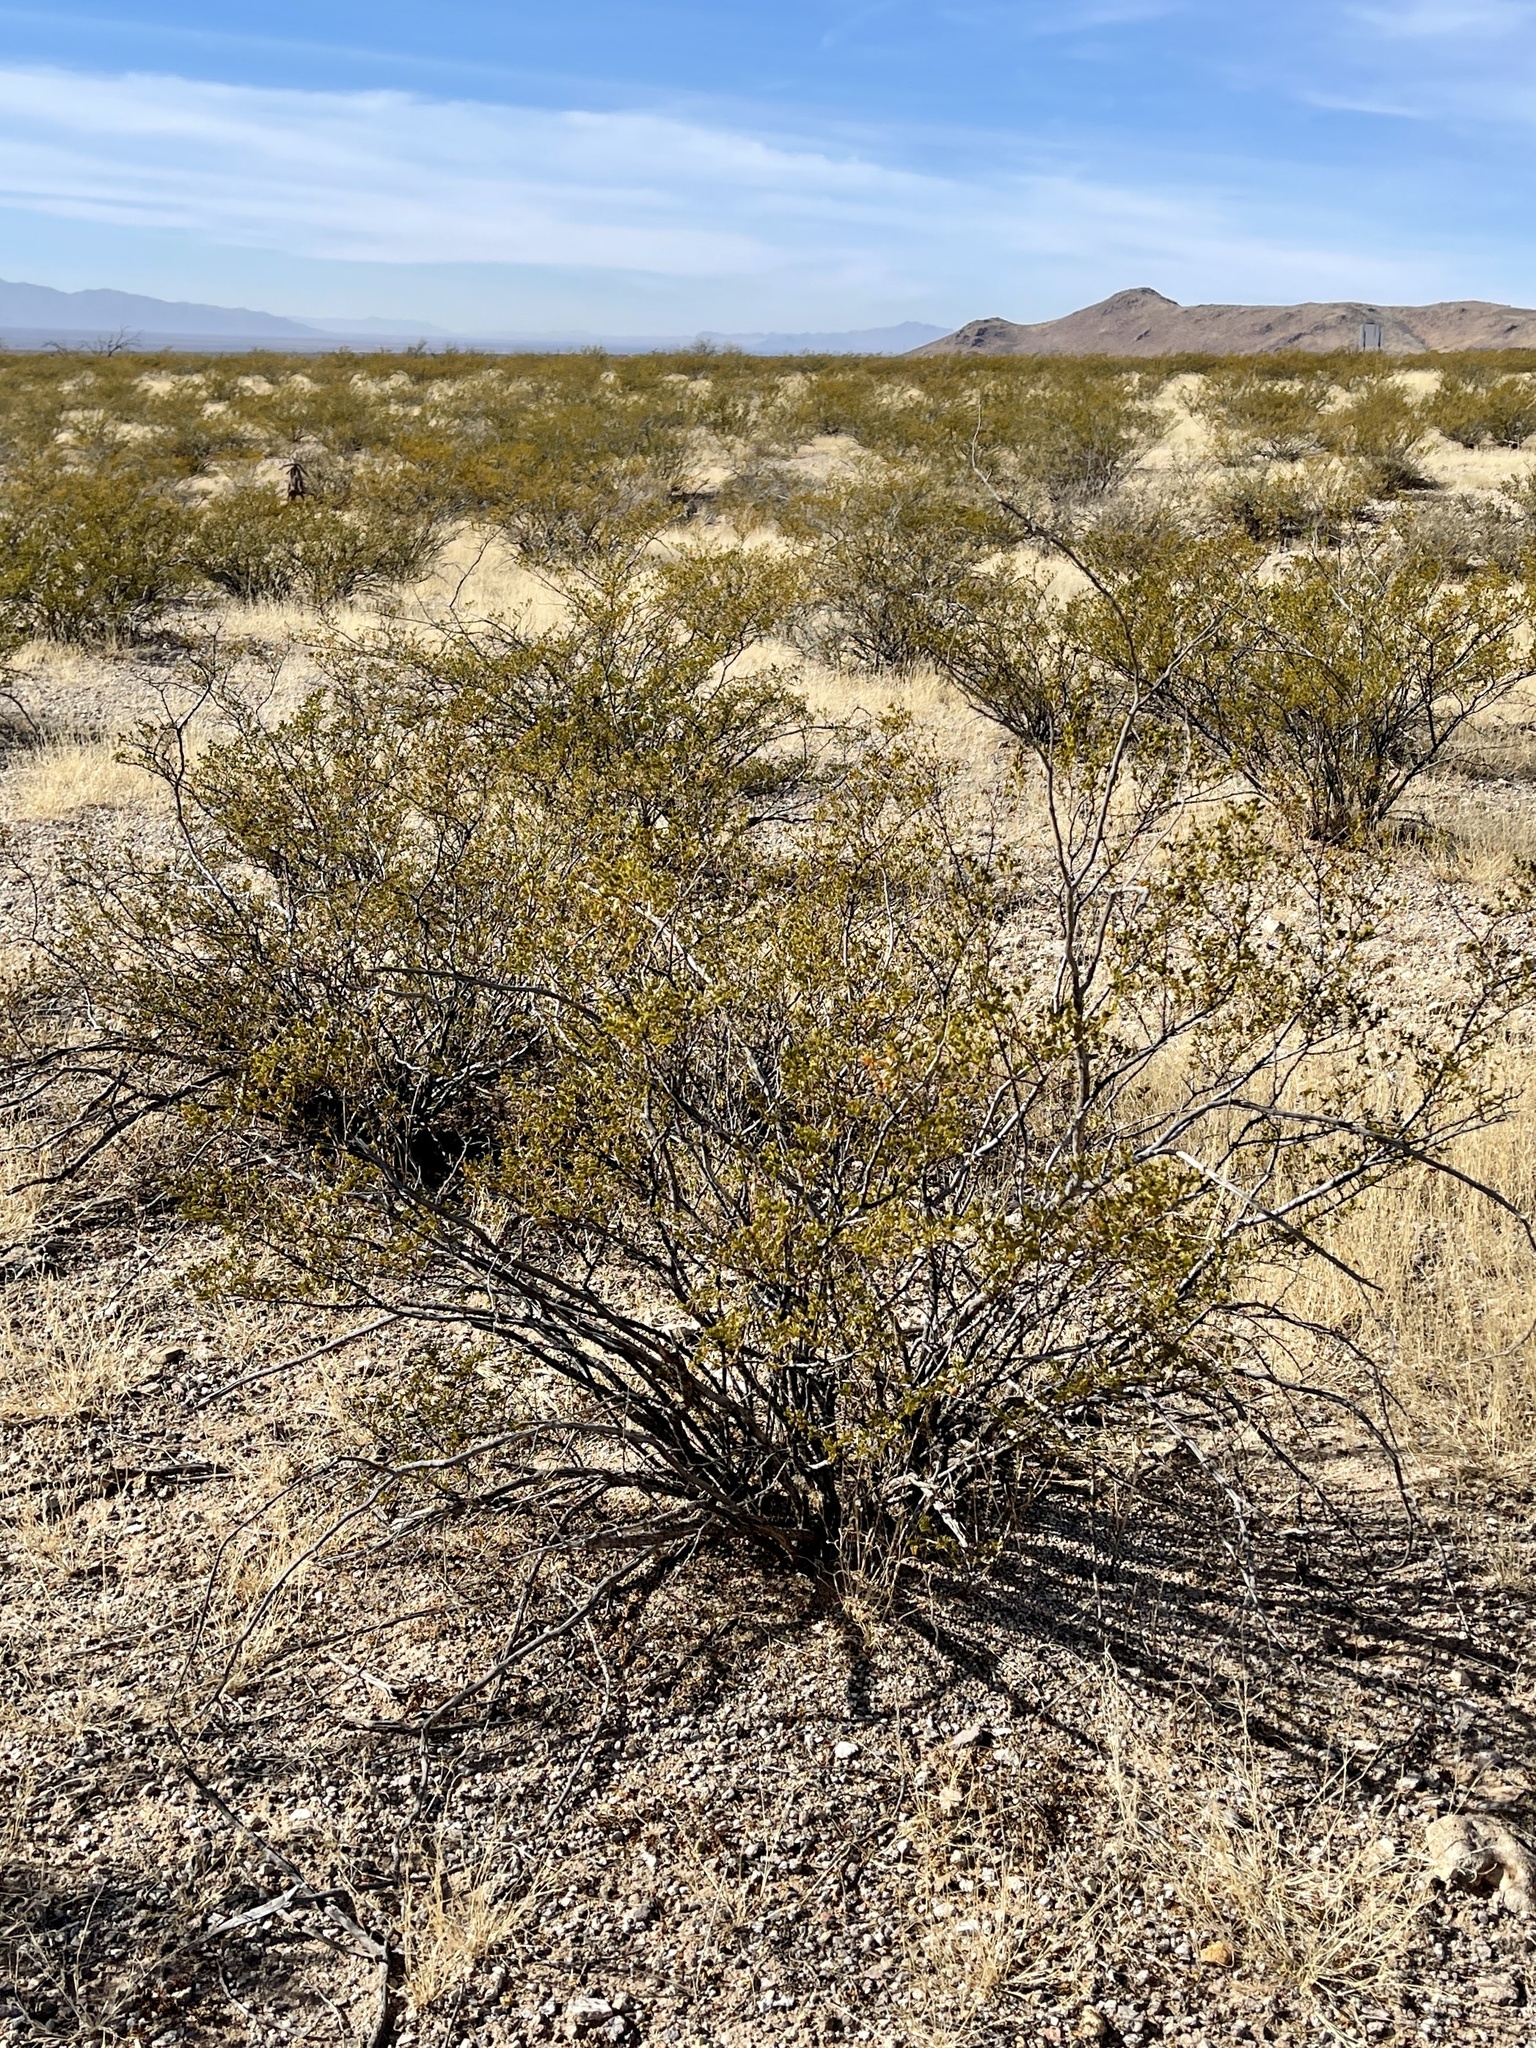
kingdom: Plantae
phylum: Tracheophyta
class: Magnoliopsida
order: Zygophyllales
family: Zygophyllaceae
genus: Larrea
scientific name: Larrea tridentata
